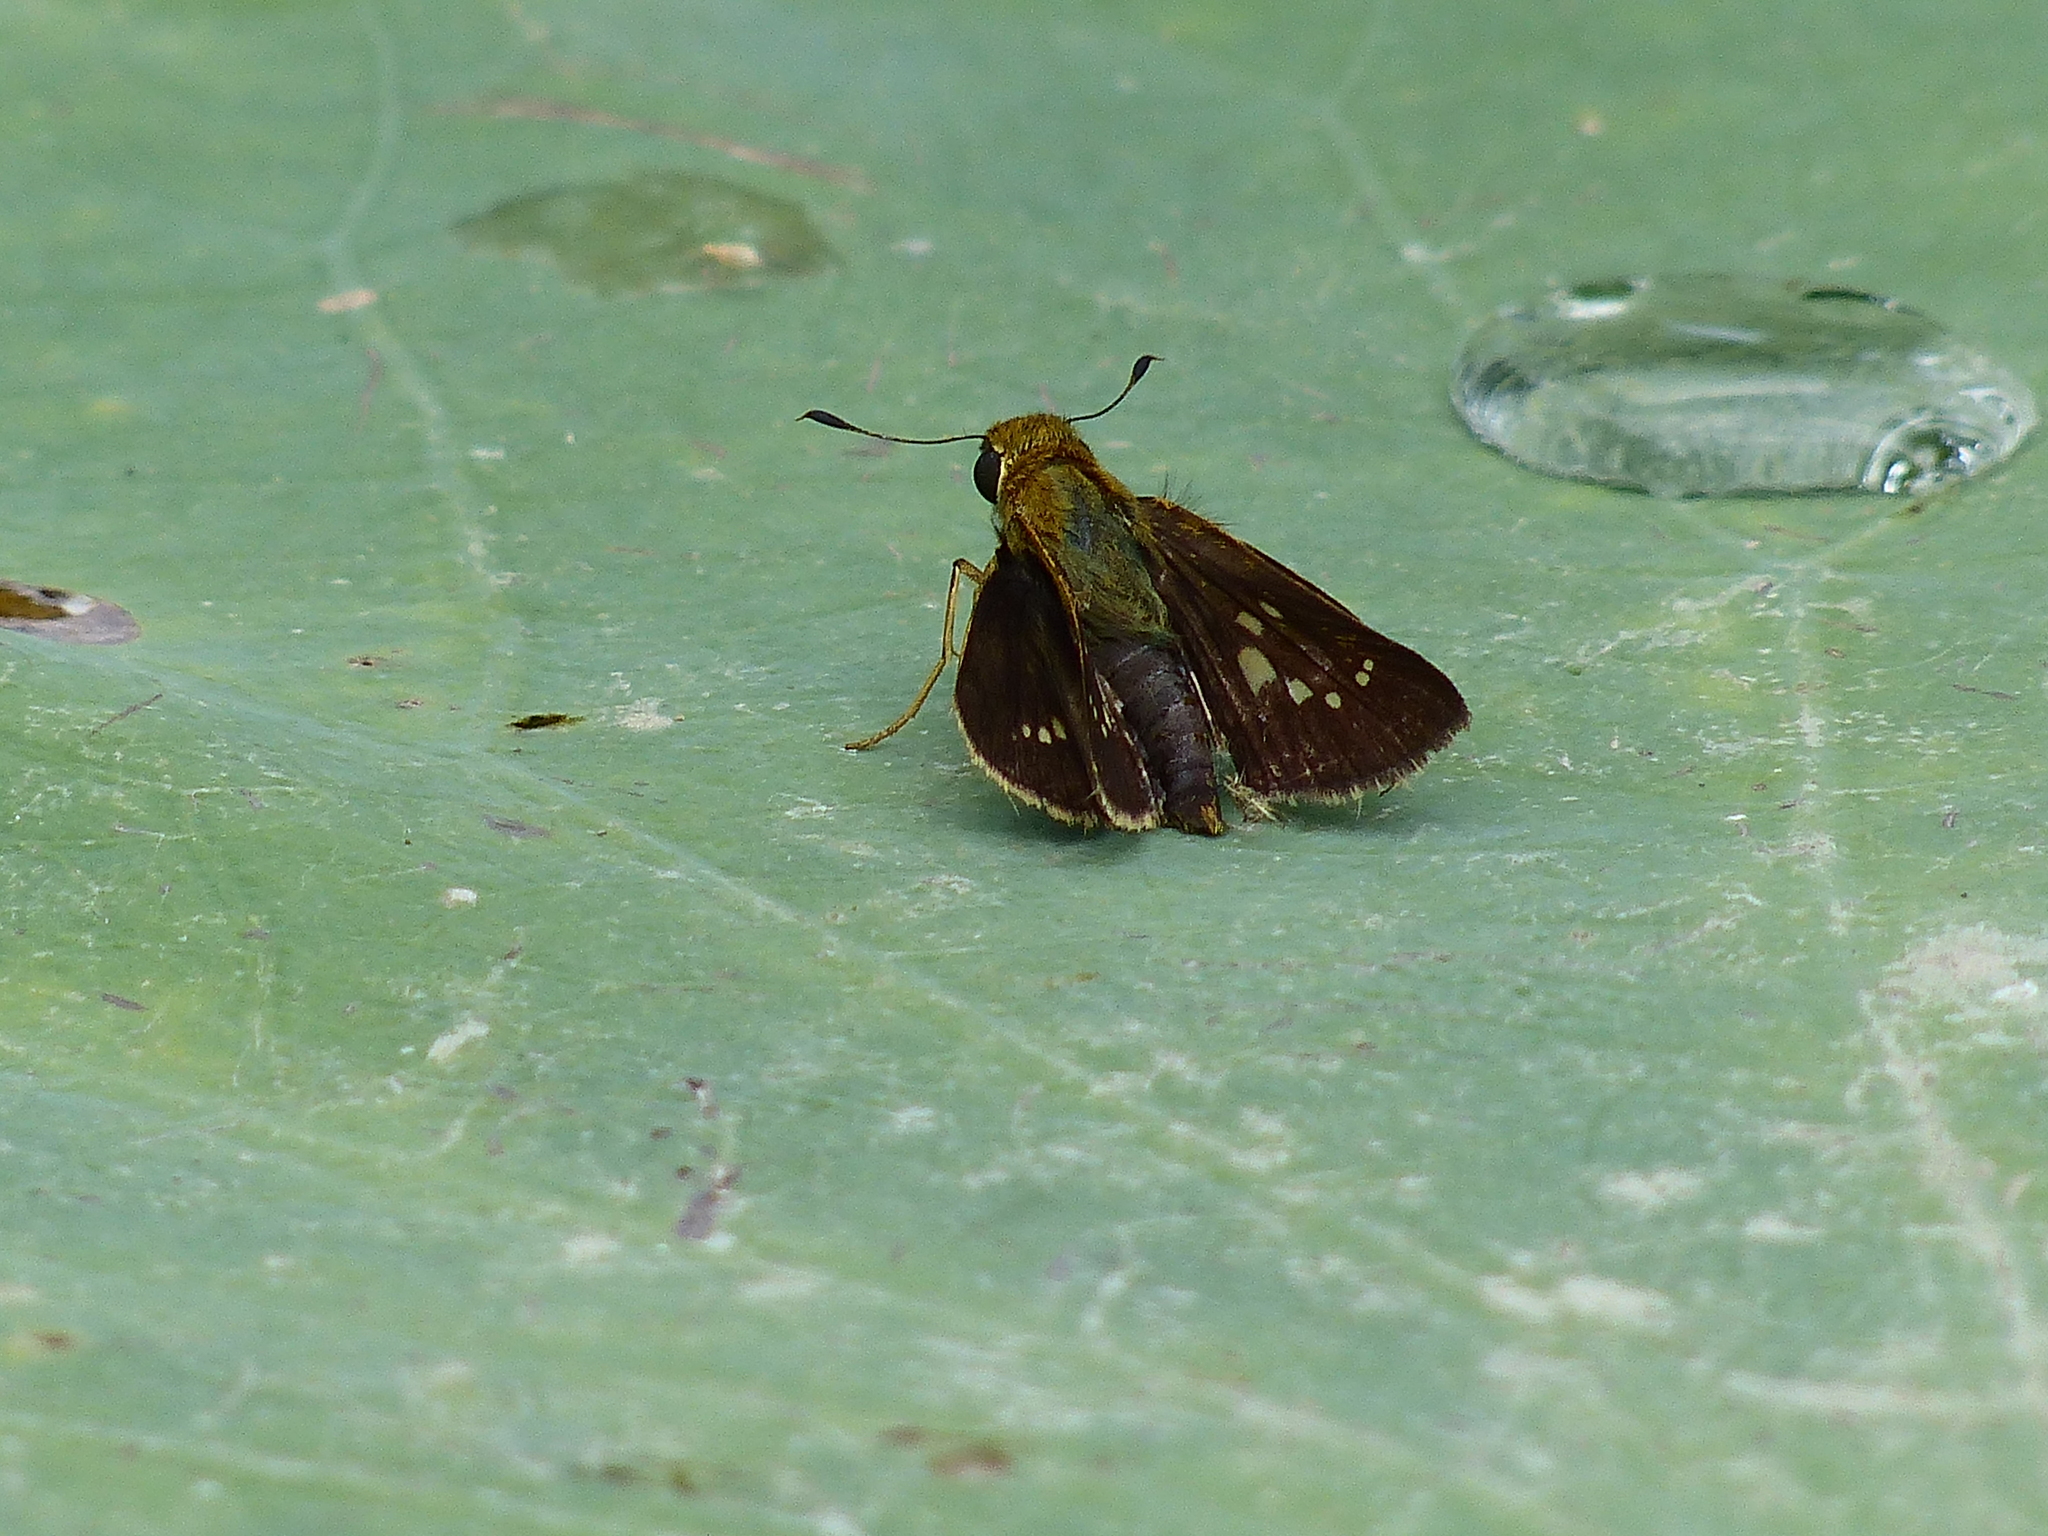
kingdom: Animalia
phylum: Arthropoda
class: Insecta
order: Lepidoptera
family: Hesperiidae
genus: Parnara
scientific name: Parnara guttatus
